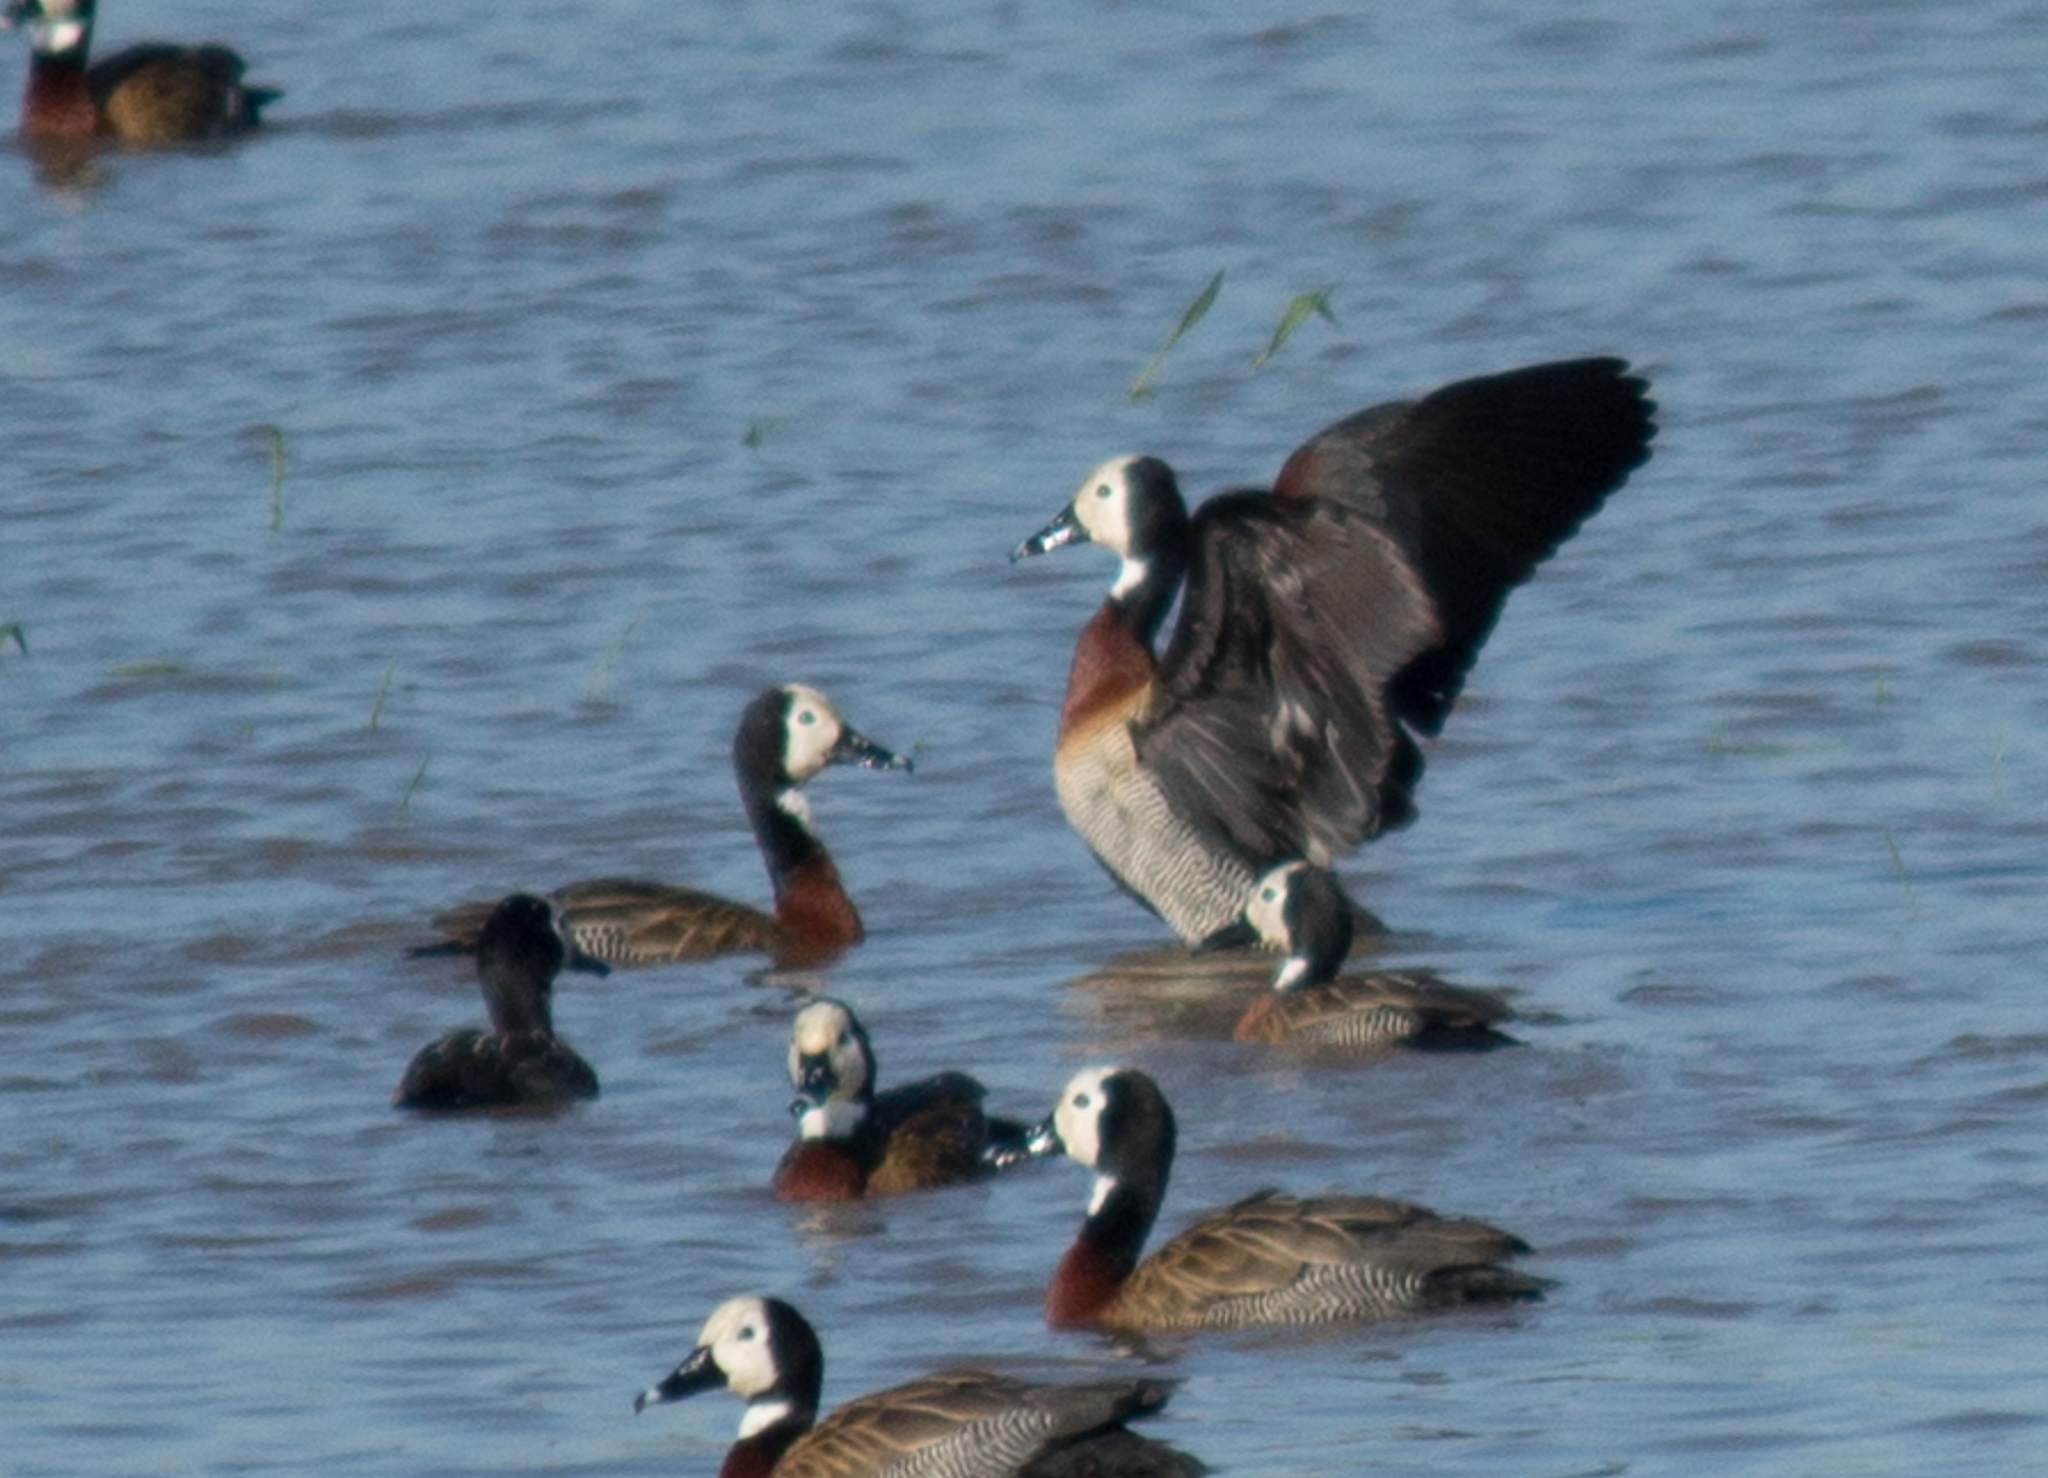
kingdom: Animalia
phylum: Chordata
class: Aves
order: Anseriformes
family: Anatidae
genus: Dendrocygna
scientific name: Dendrocygna viduata
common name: White-faced whistling duck
